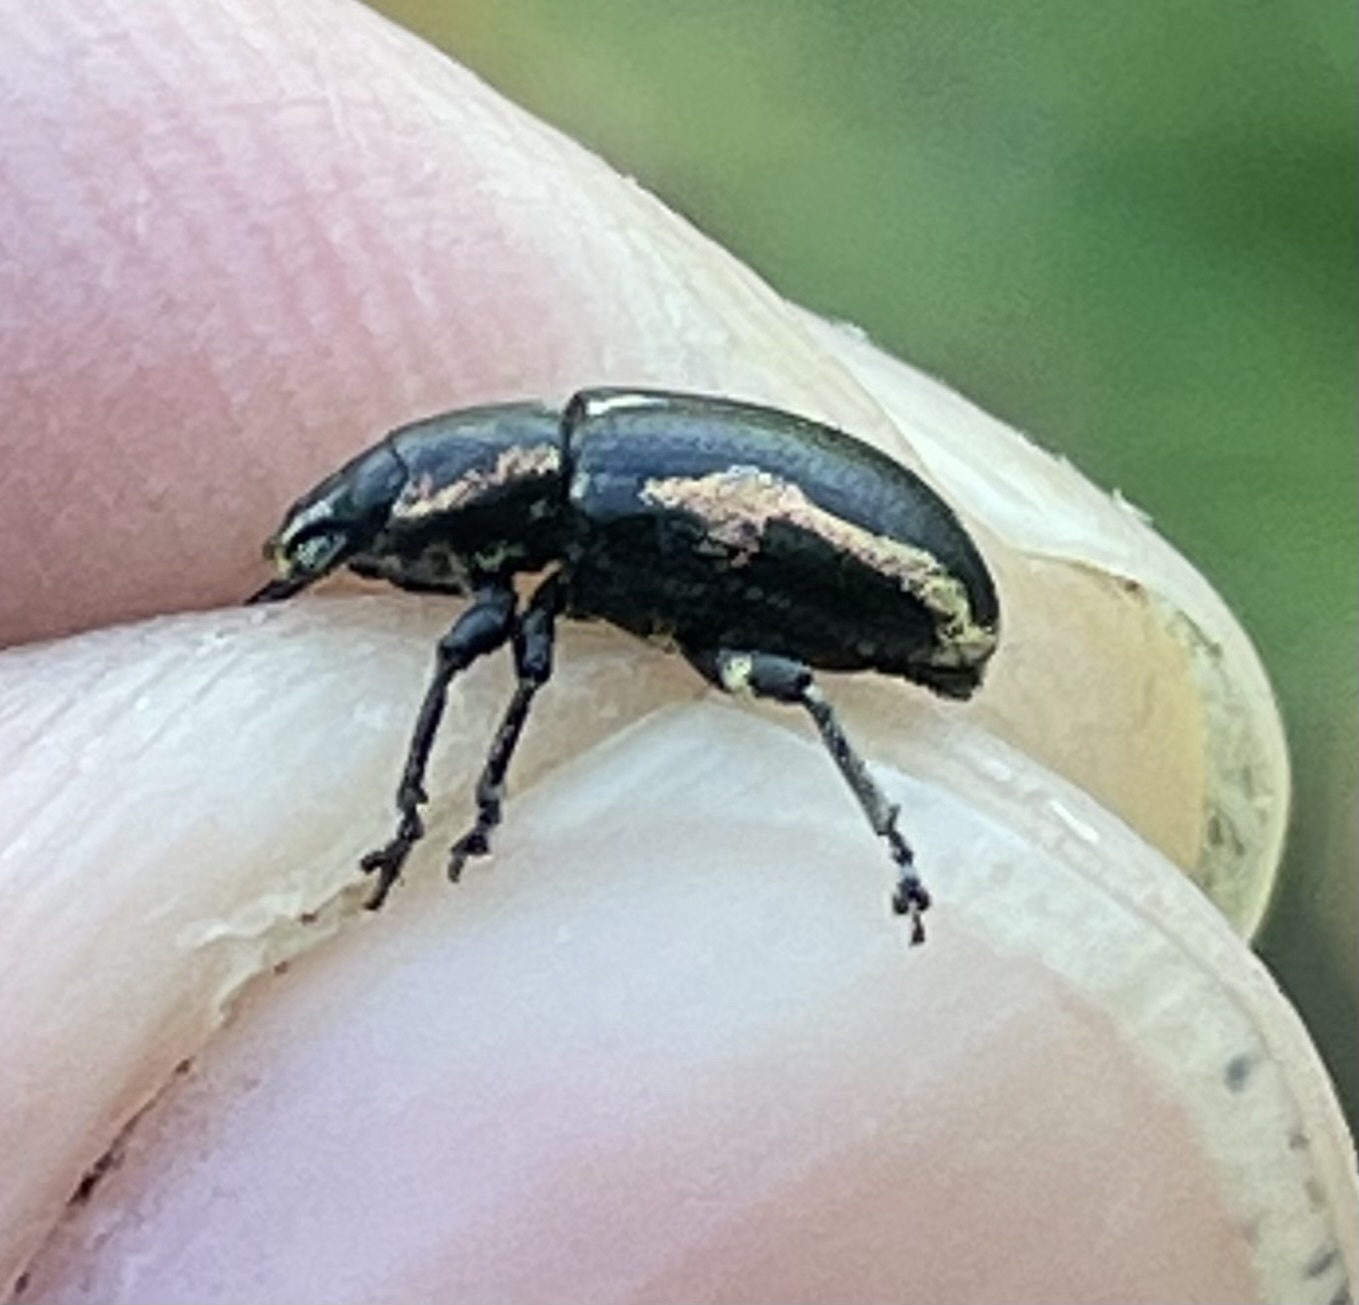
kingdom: Animalia
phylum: Arthropoda
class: Insecta
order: Coleoptera
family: Curculionidae
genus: Eudiagogus
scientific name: Eudiagogus pulcher
